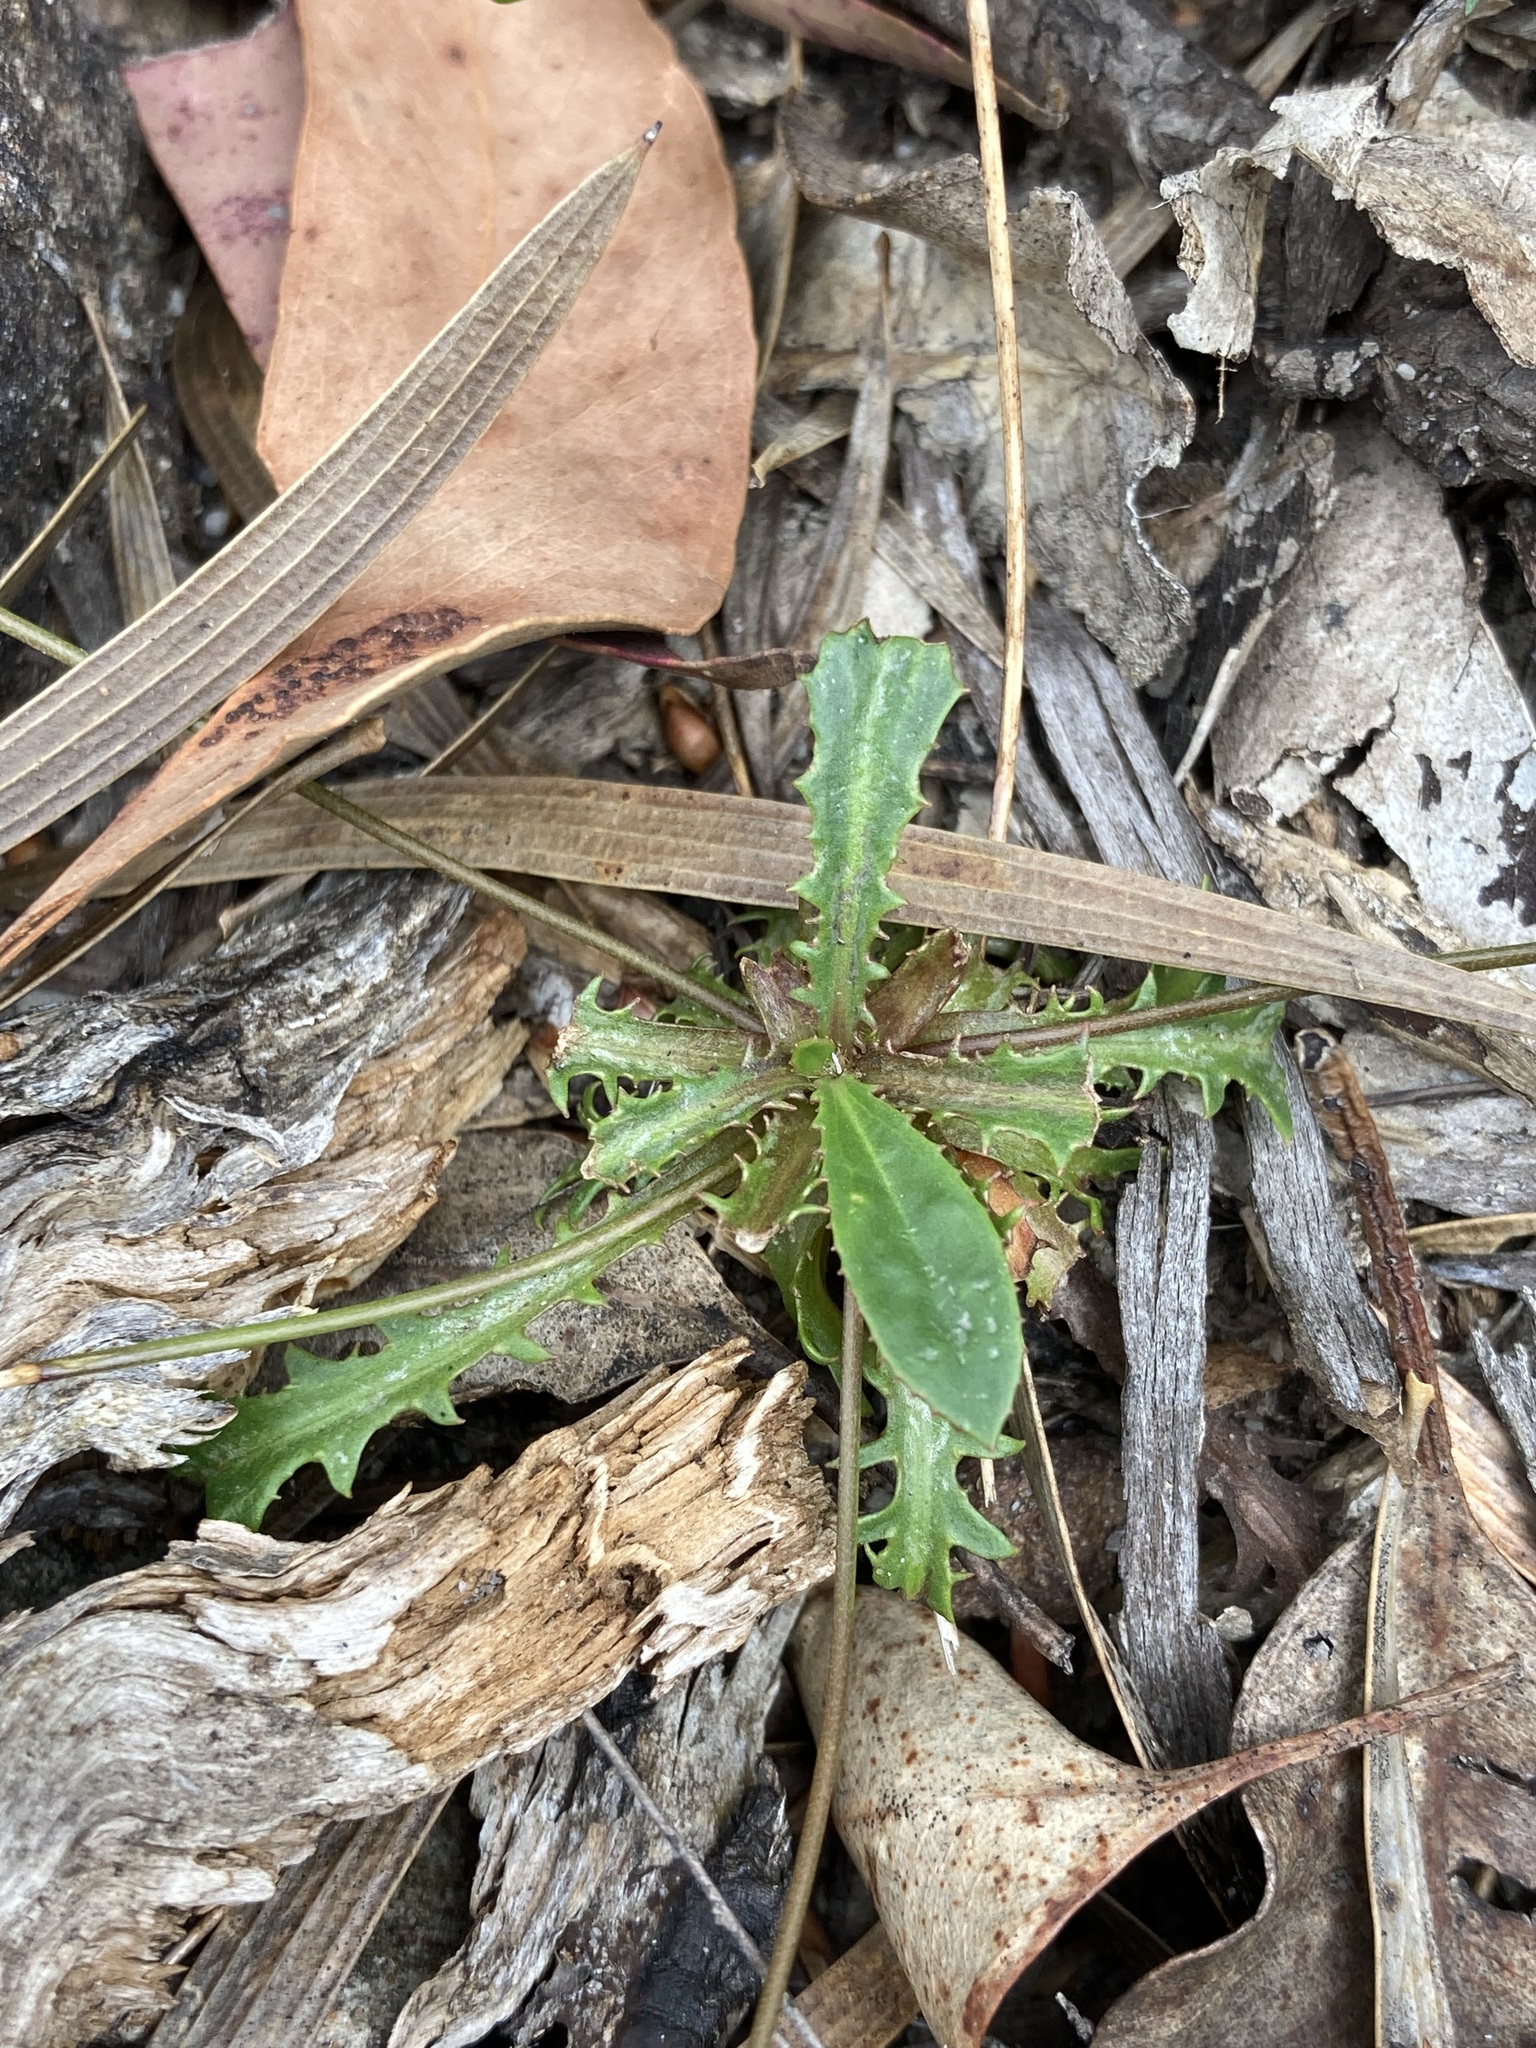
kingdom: Plantae
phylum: Tracheophyta
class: Magnoliopsida
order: Asterales
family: Goodeniaceae
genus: Goodenia
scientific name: Goodenia caroliniana
